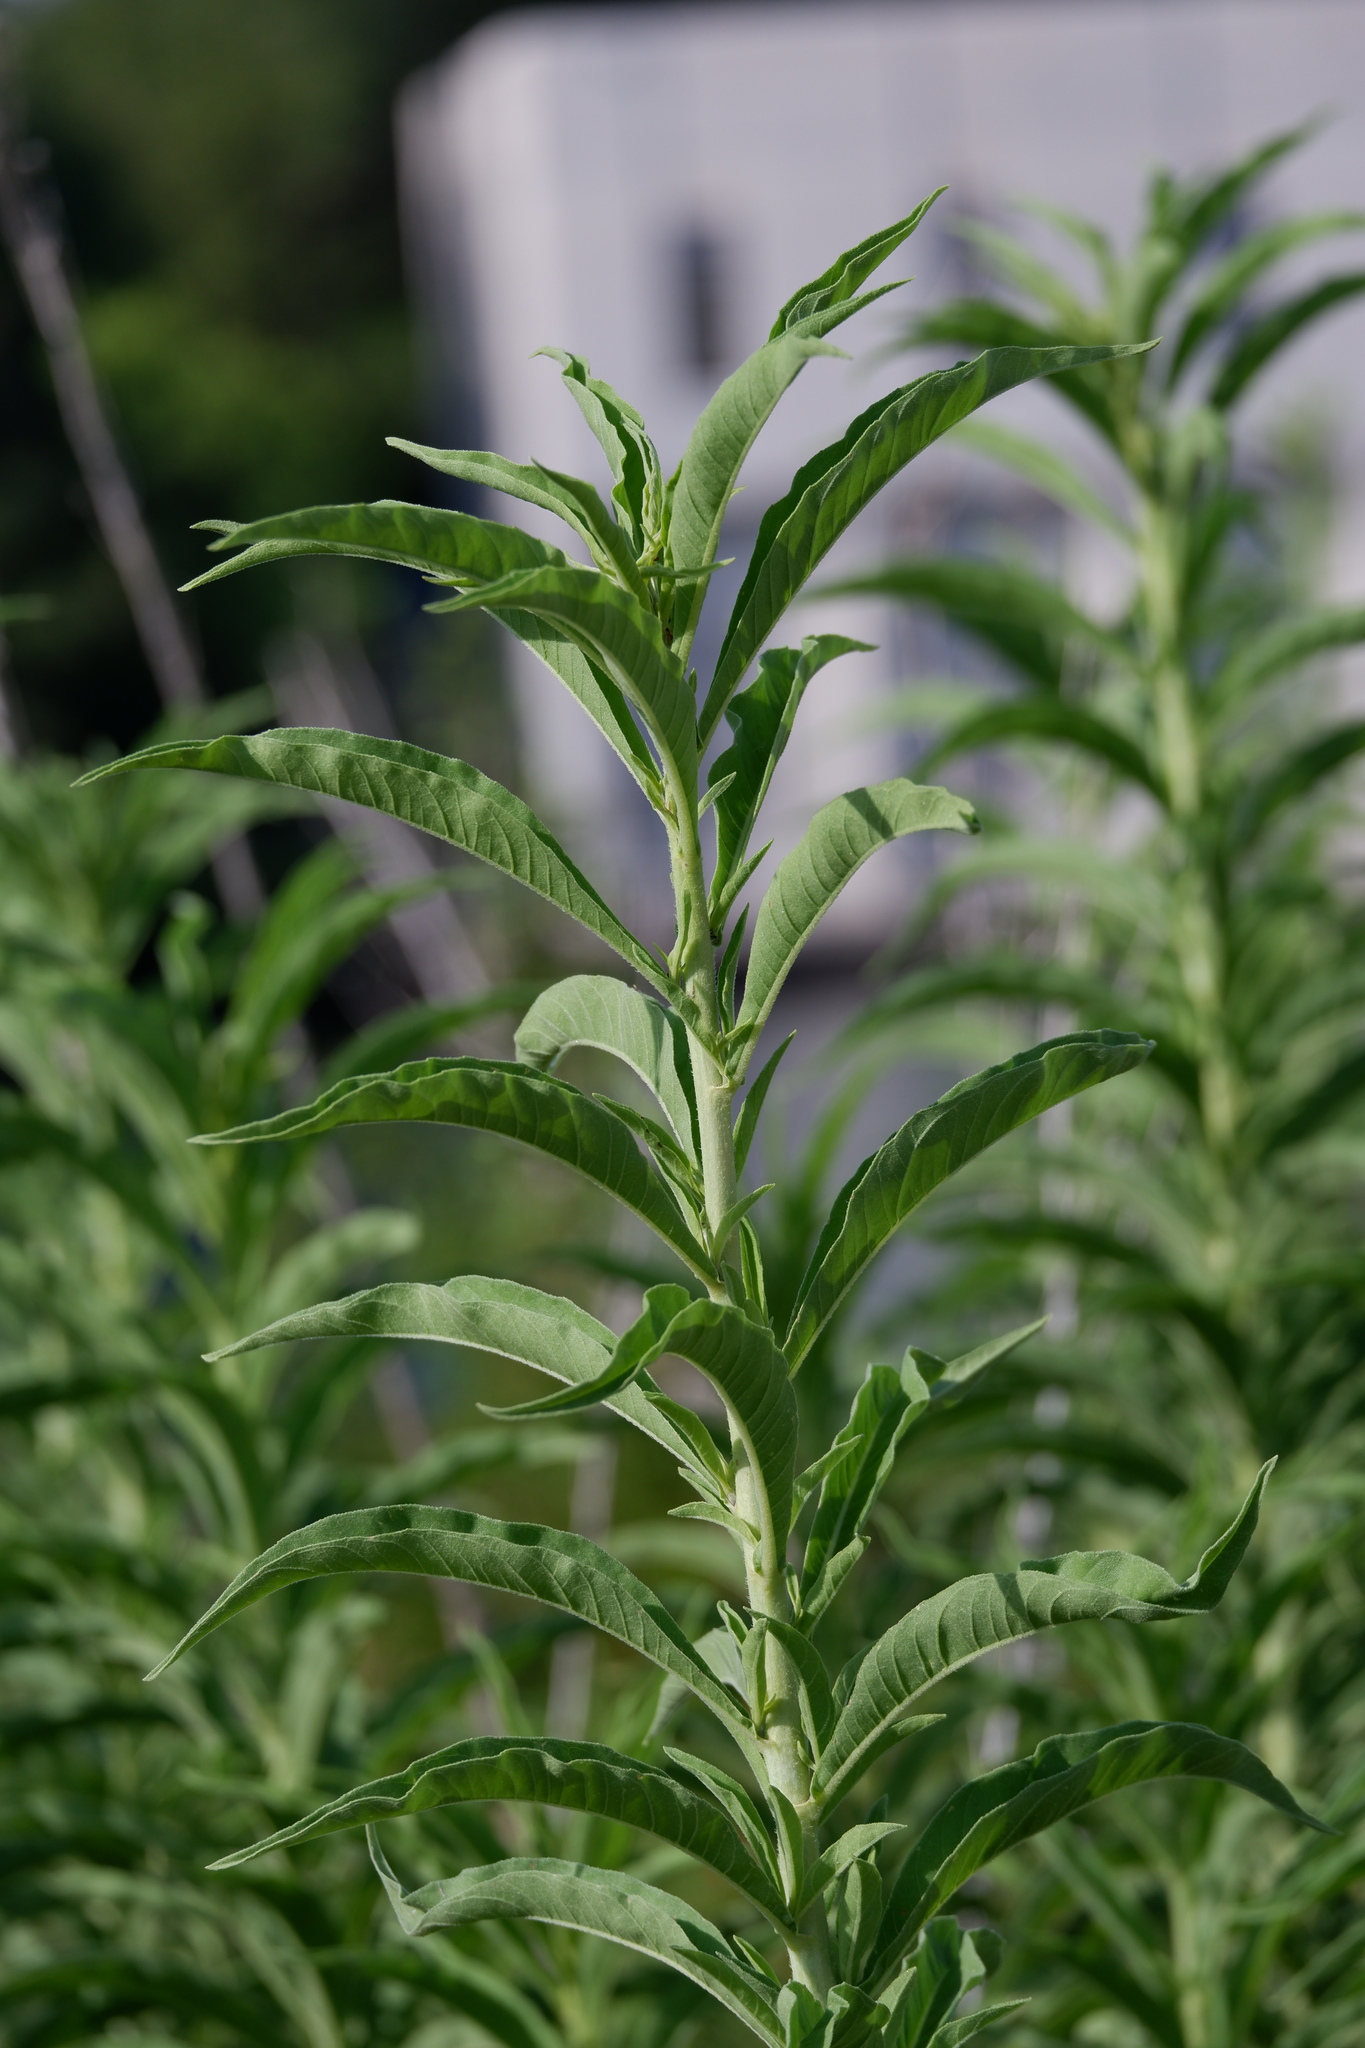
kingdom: Plantae
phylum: Tracheophyta
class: Magnoliopsida
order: Asterales
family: Asteraceae
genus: Helianthus
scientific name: Helianthus maximiliani
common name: Maximilian's sunflower
